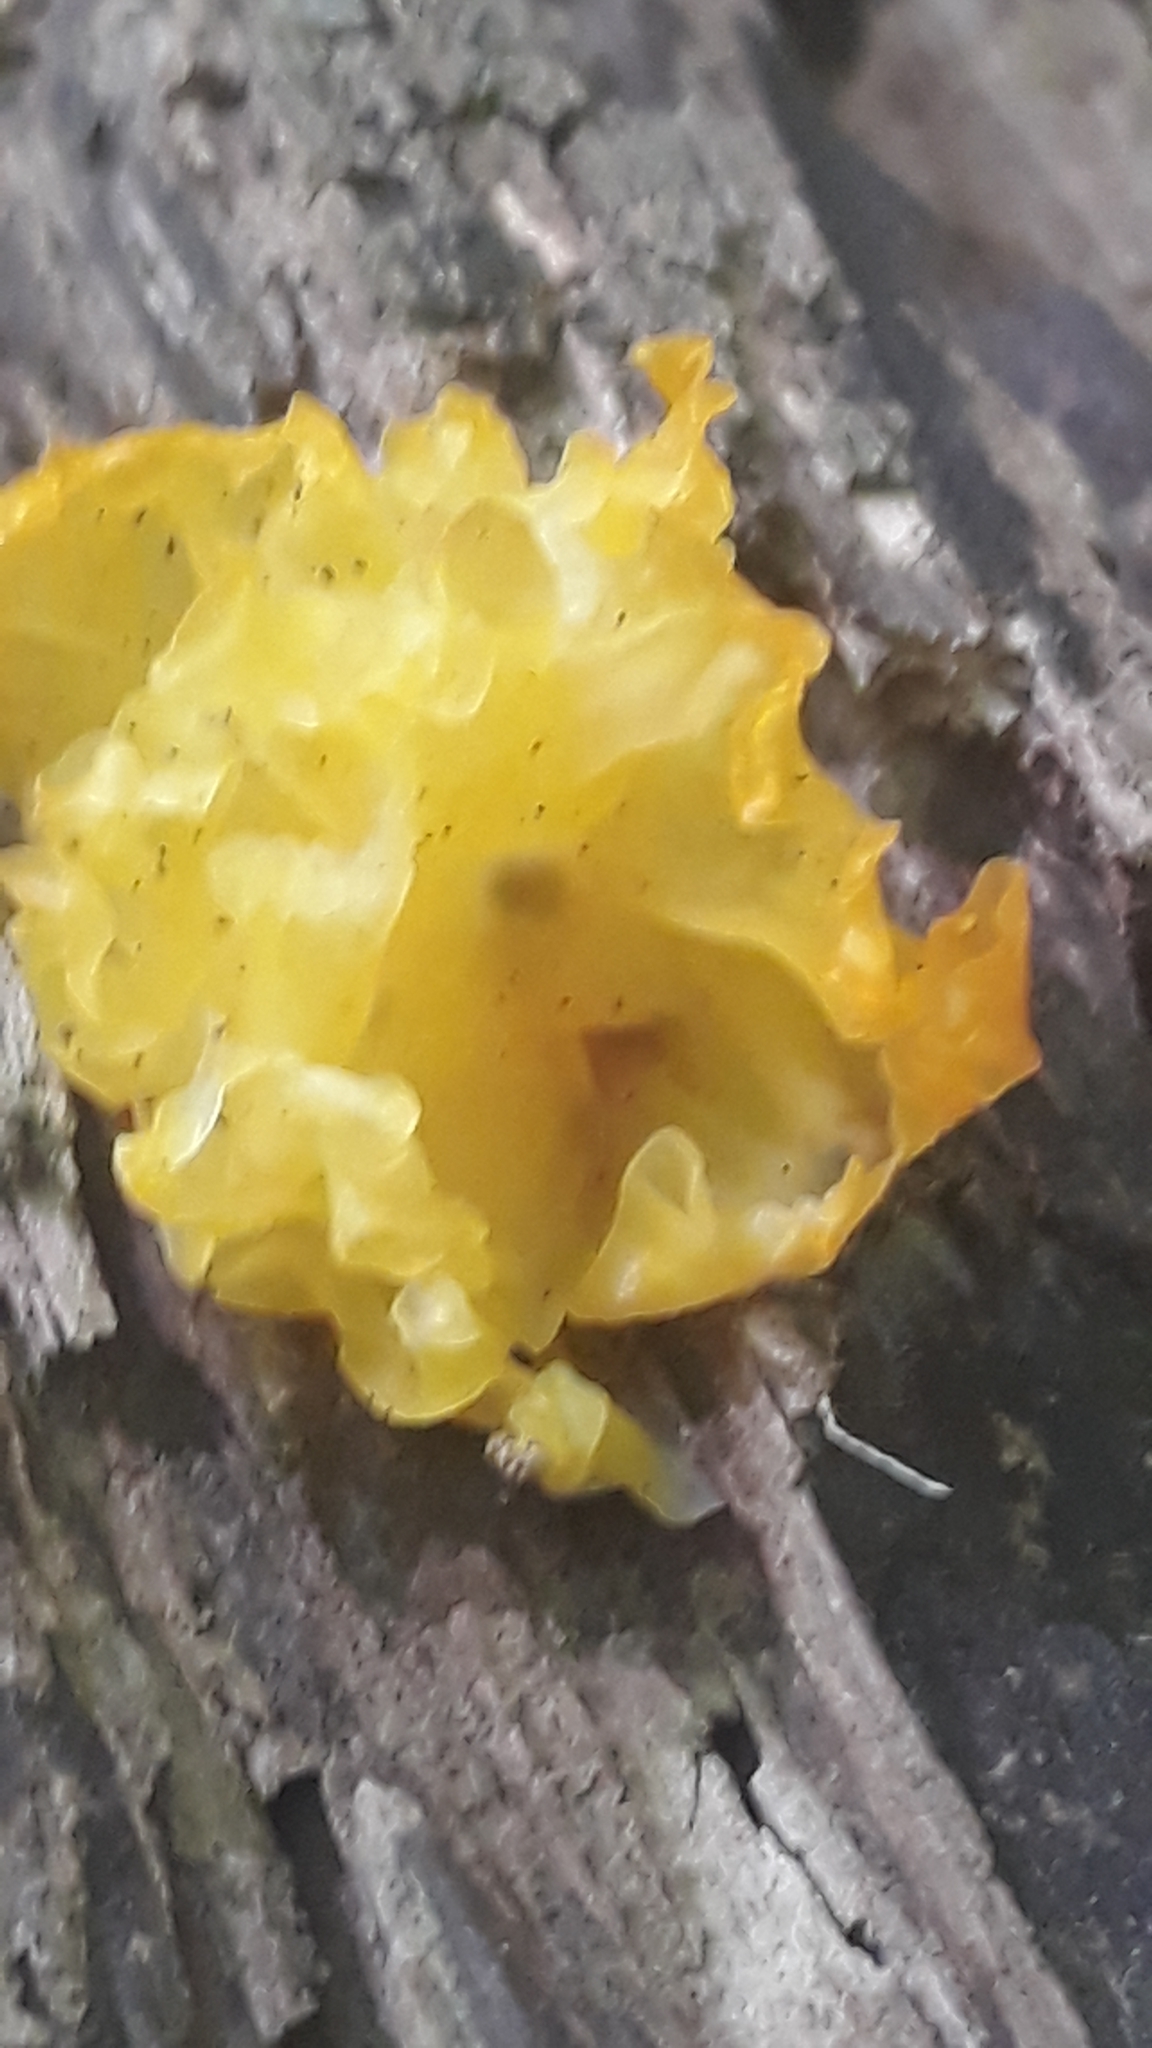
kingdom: Fungi
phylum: Basidiomycota
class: Tremellomycetes
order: Tremellales
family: Tremellaceae
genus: Tremella
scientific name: Tremella mesenterica
